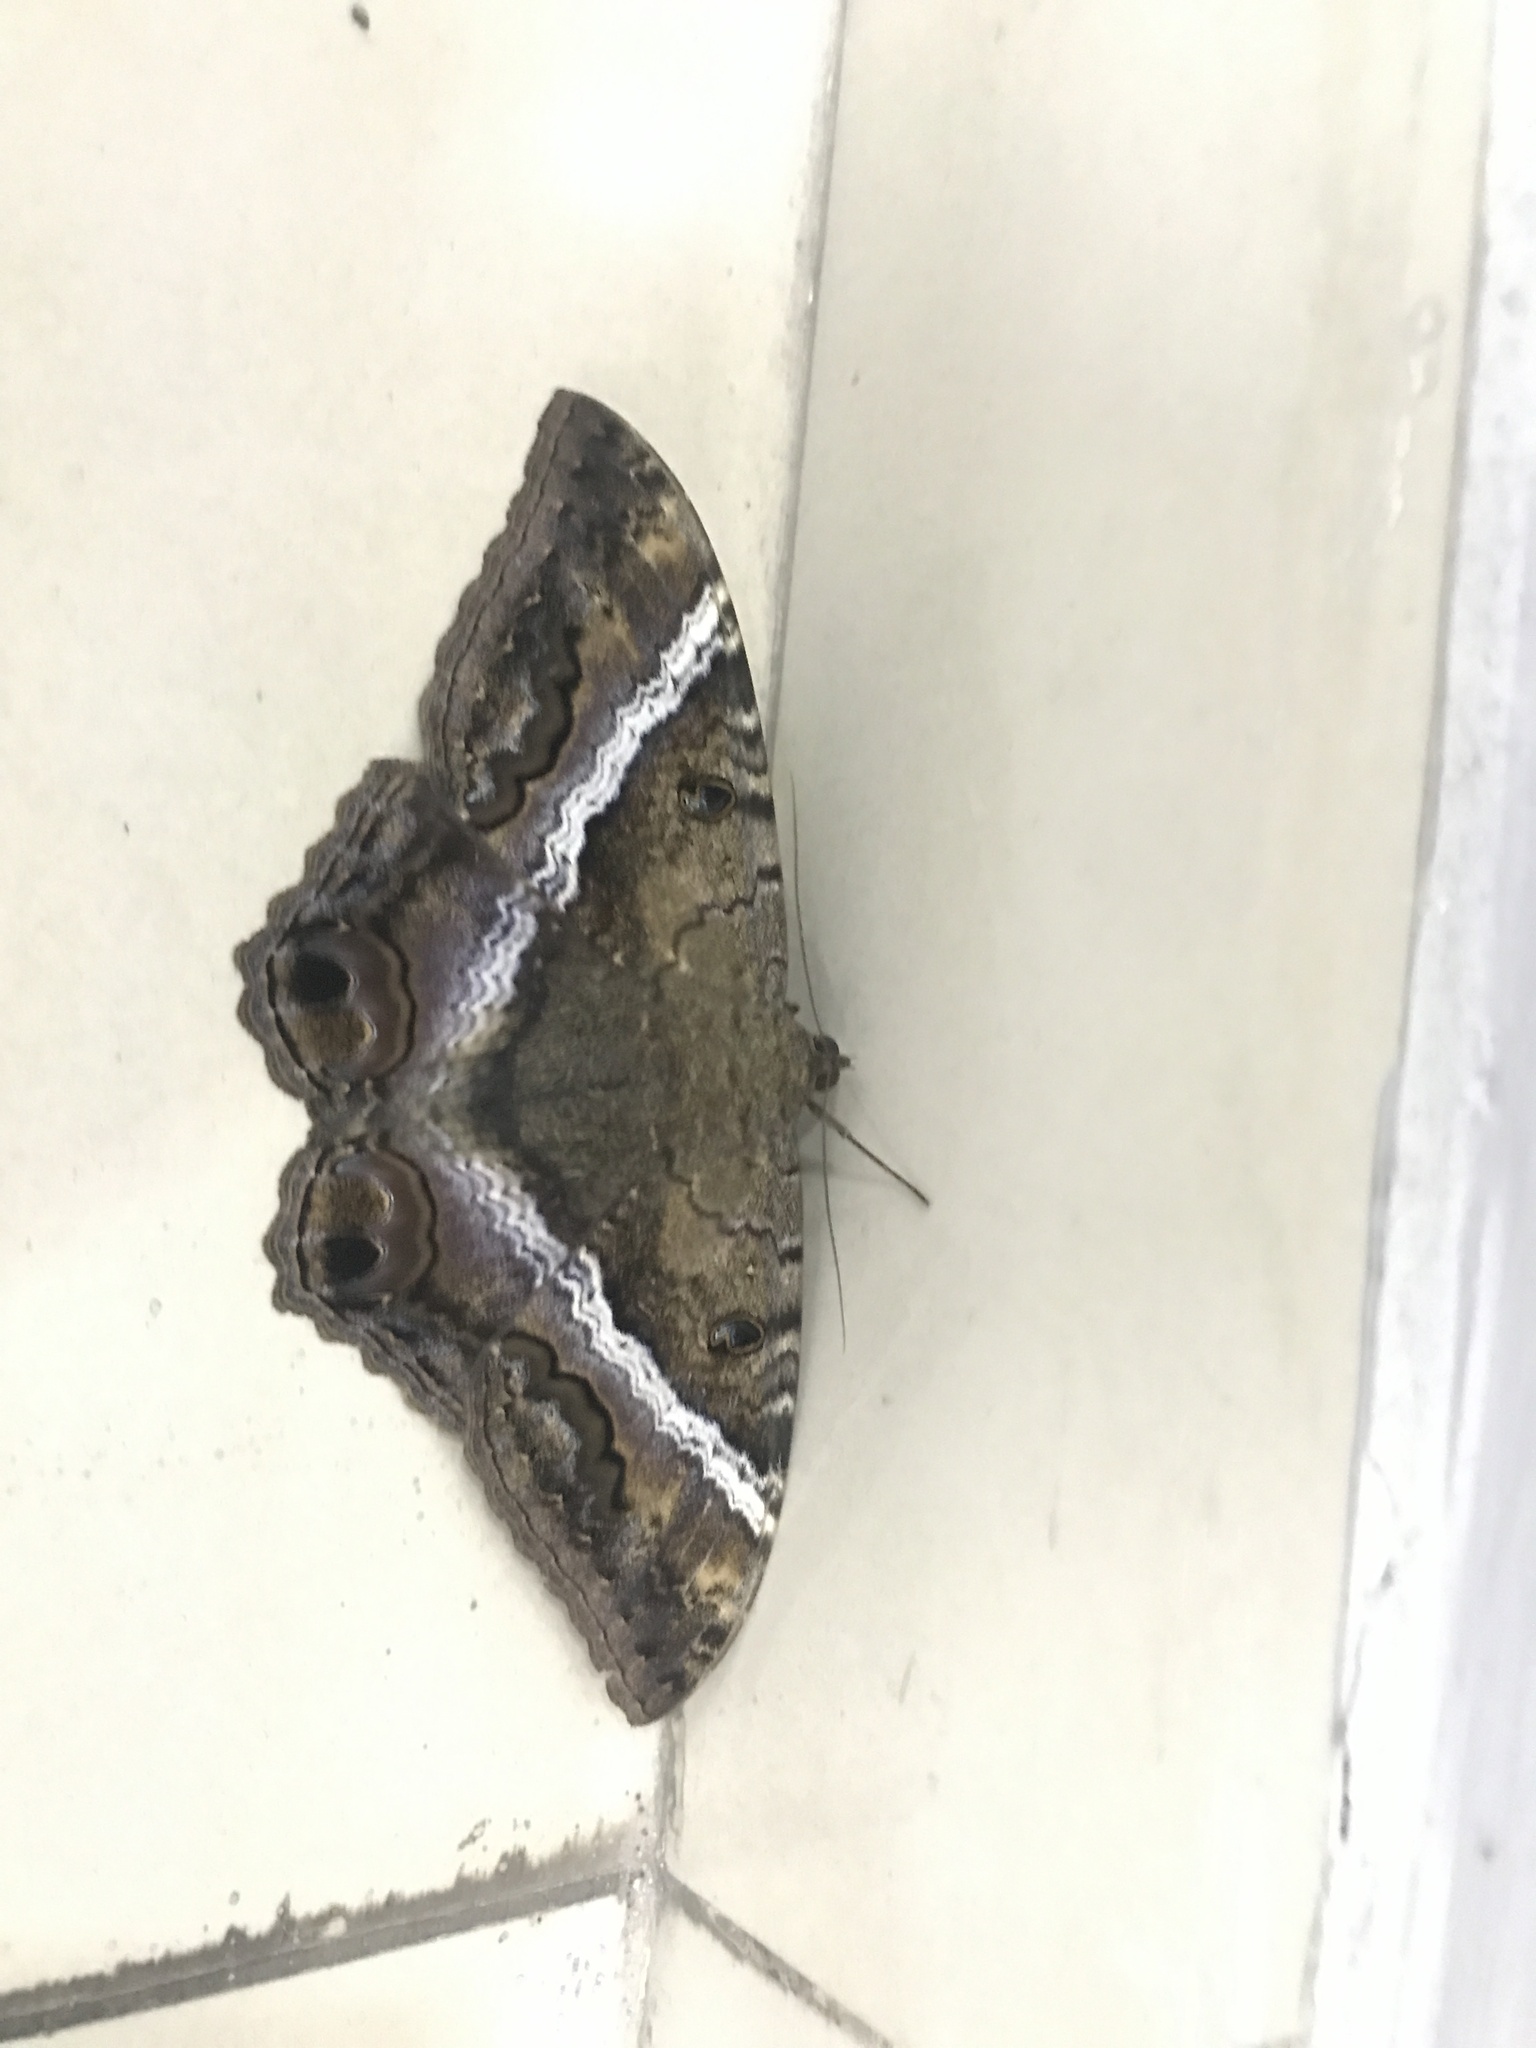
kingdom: Animalia
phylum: Arthropoda
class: Insecta
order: Lepidoptera
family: Erebidae
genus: Ascalapha
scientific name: Ascalapha odorata
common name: Black witch
